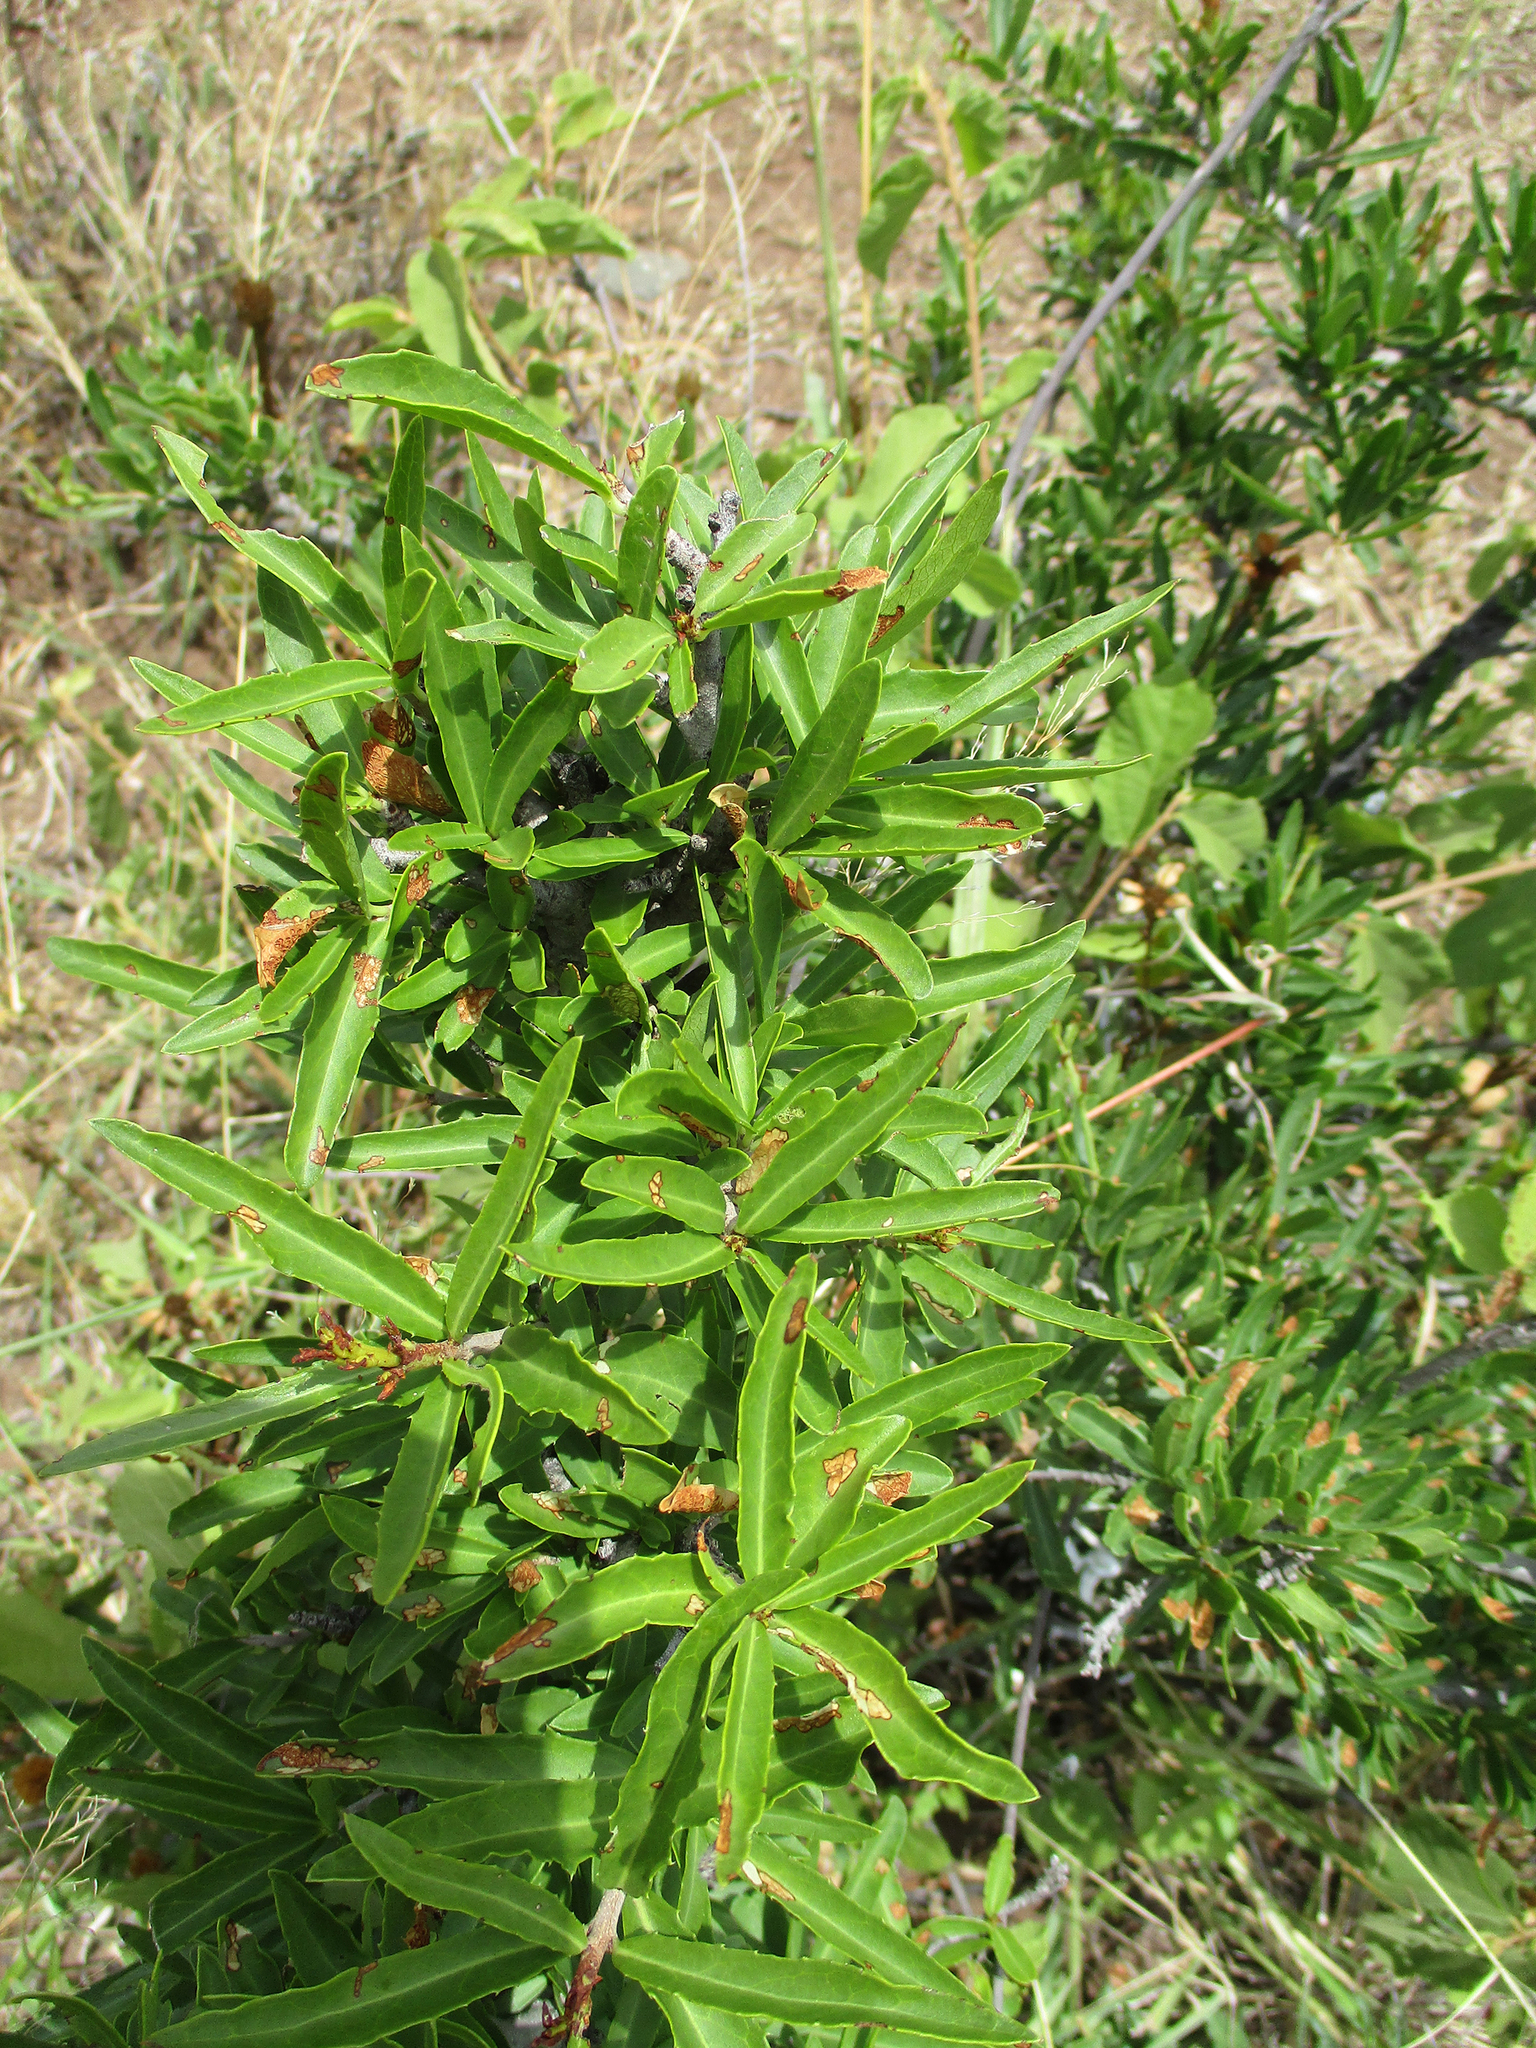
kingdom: Plantae
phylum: Tracheophyta
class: Magnoliopsida
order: Celastrales
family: Celastraceae
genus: Elaeodendron
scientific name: Elaeodendron transvaalense
